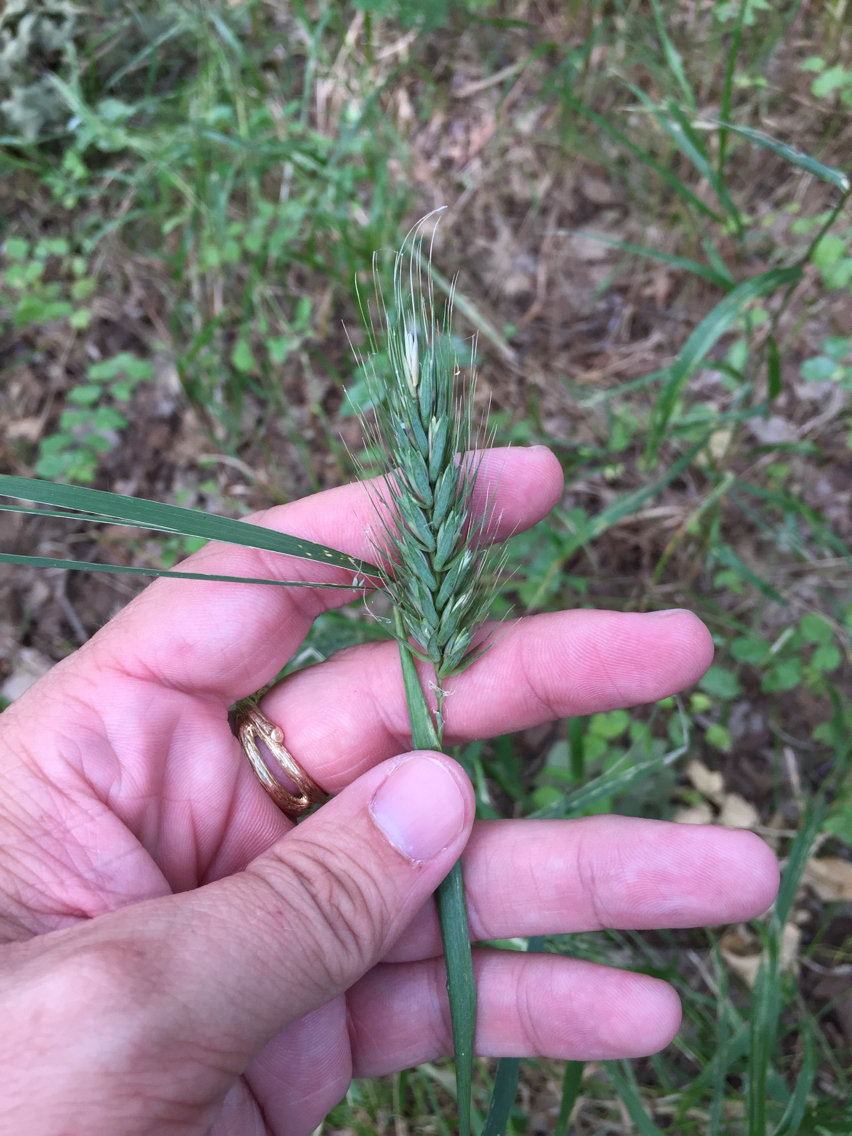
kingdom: Plantae
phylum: Tracheophyta
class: Liliopsida
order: Poales
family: Poaceae
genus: Elymus
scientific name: Elymus virginicus
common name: Common eastern wildrye
